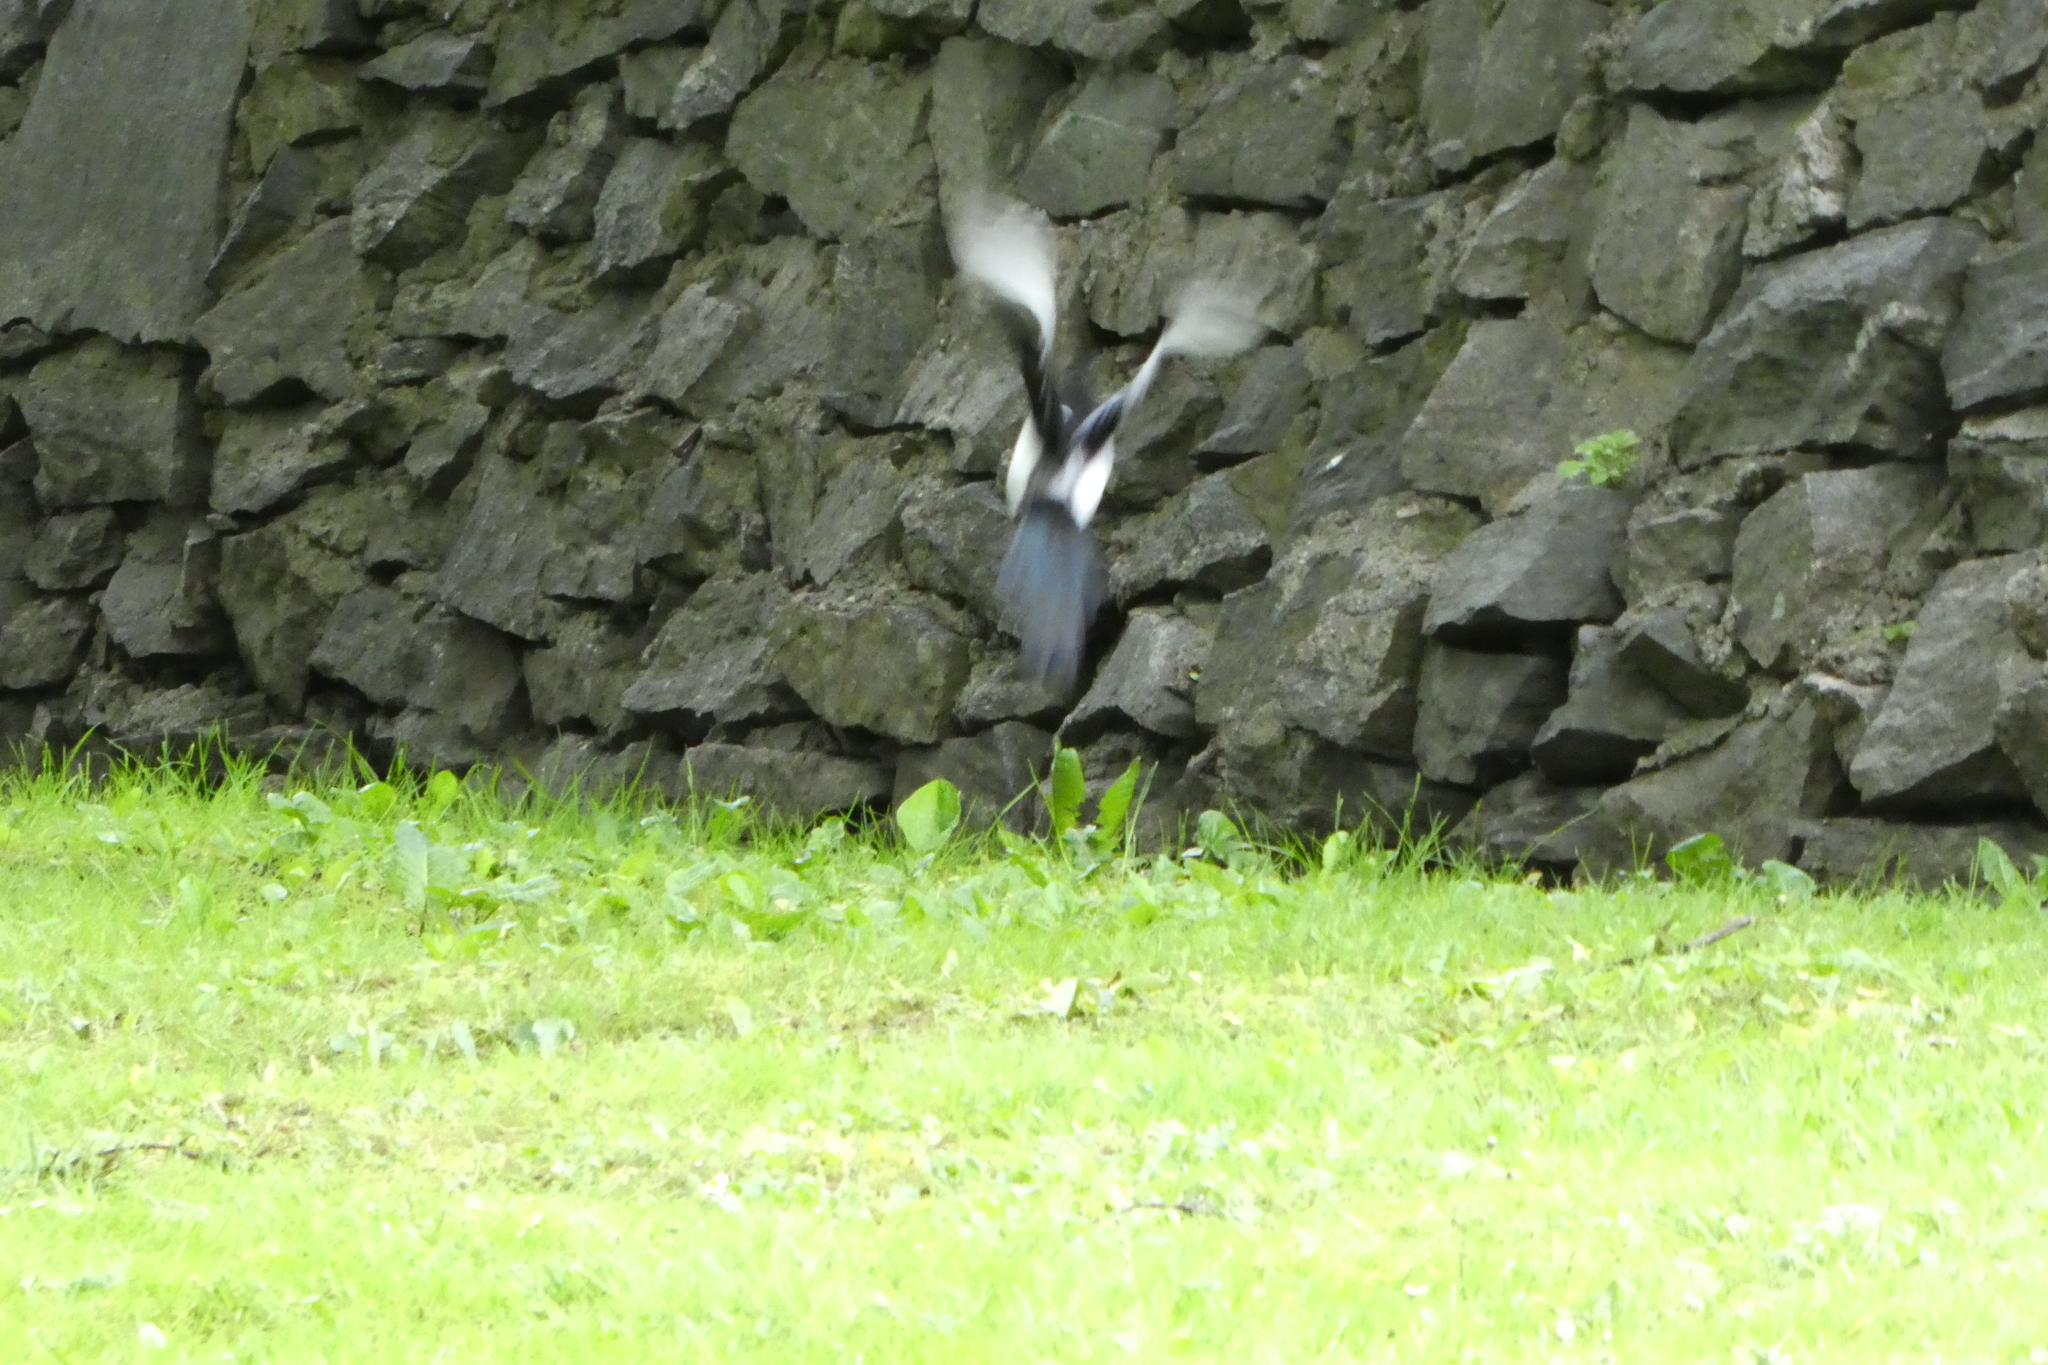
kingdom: Animalia
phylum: Chordata
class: Aves
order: Passeriformes
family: Corvidae
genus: Pica
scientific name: Pica pica
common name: Eurasian magpie
